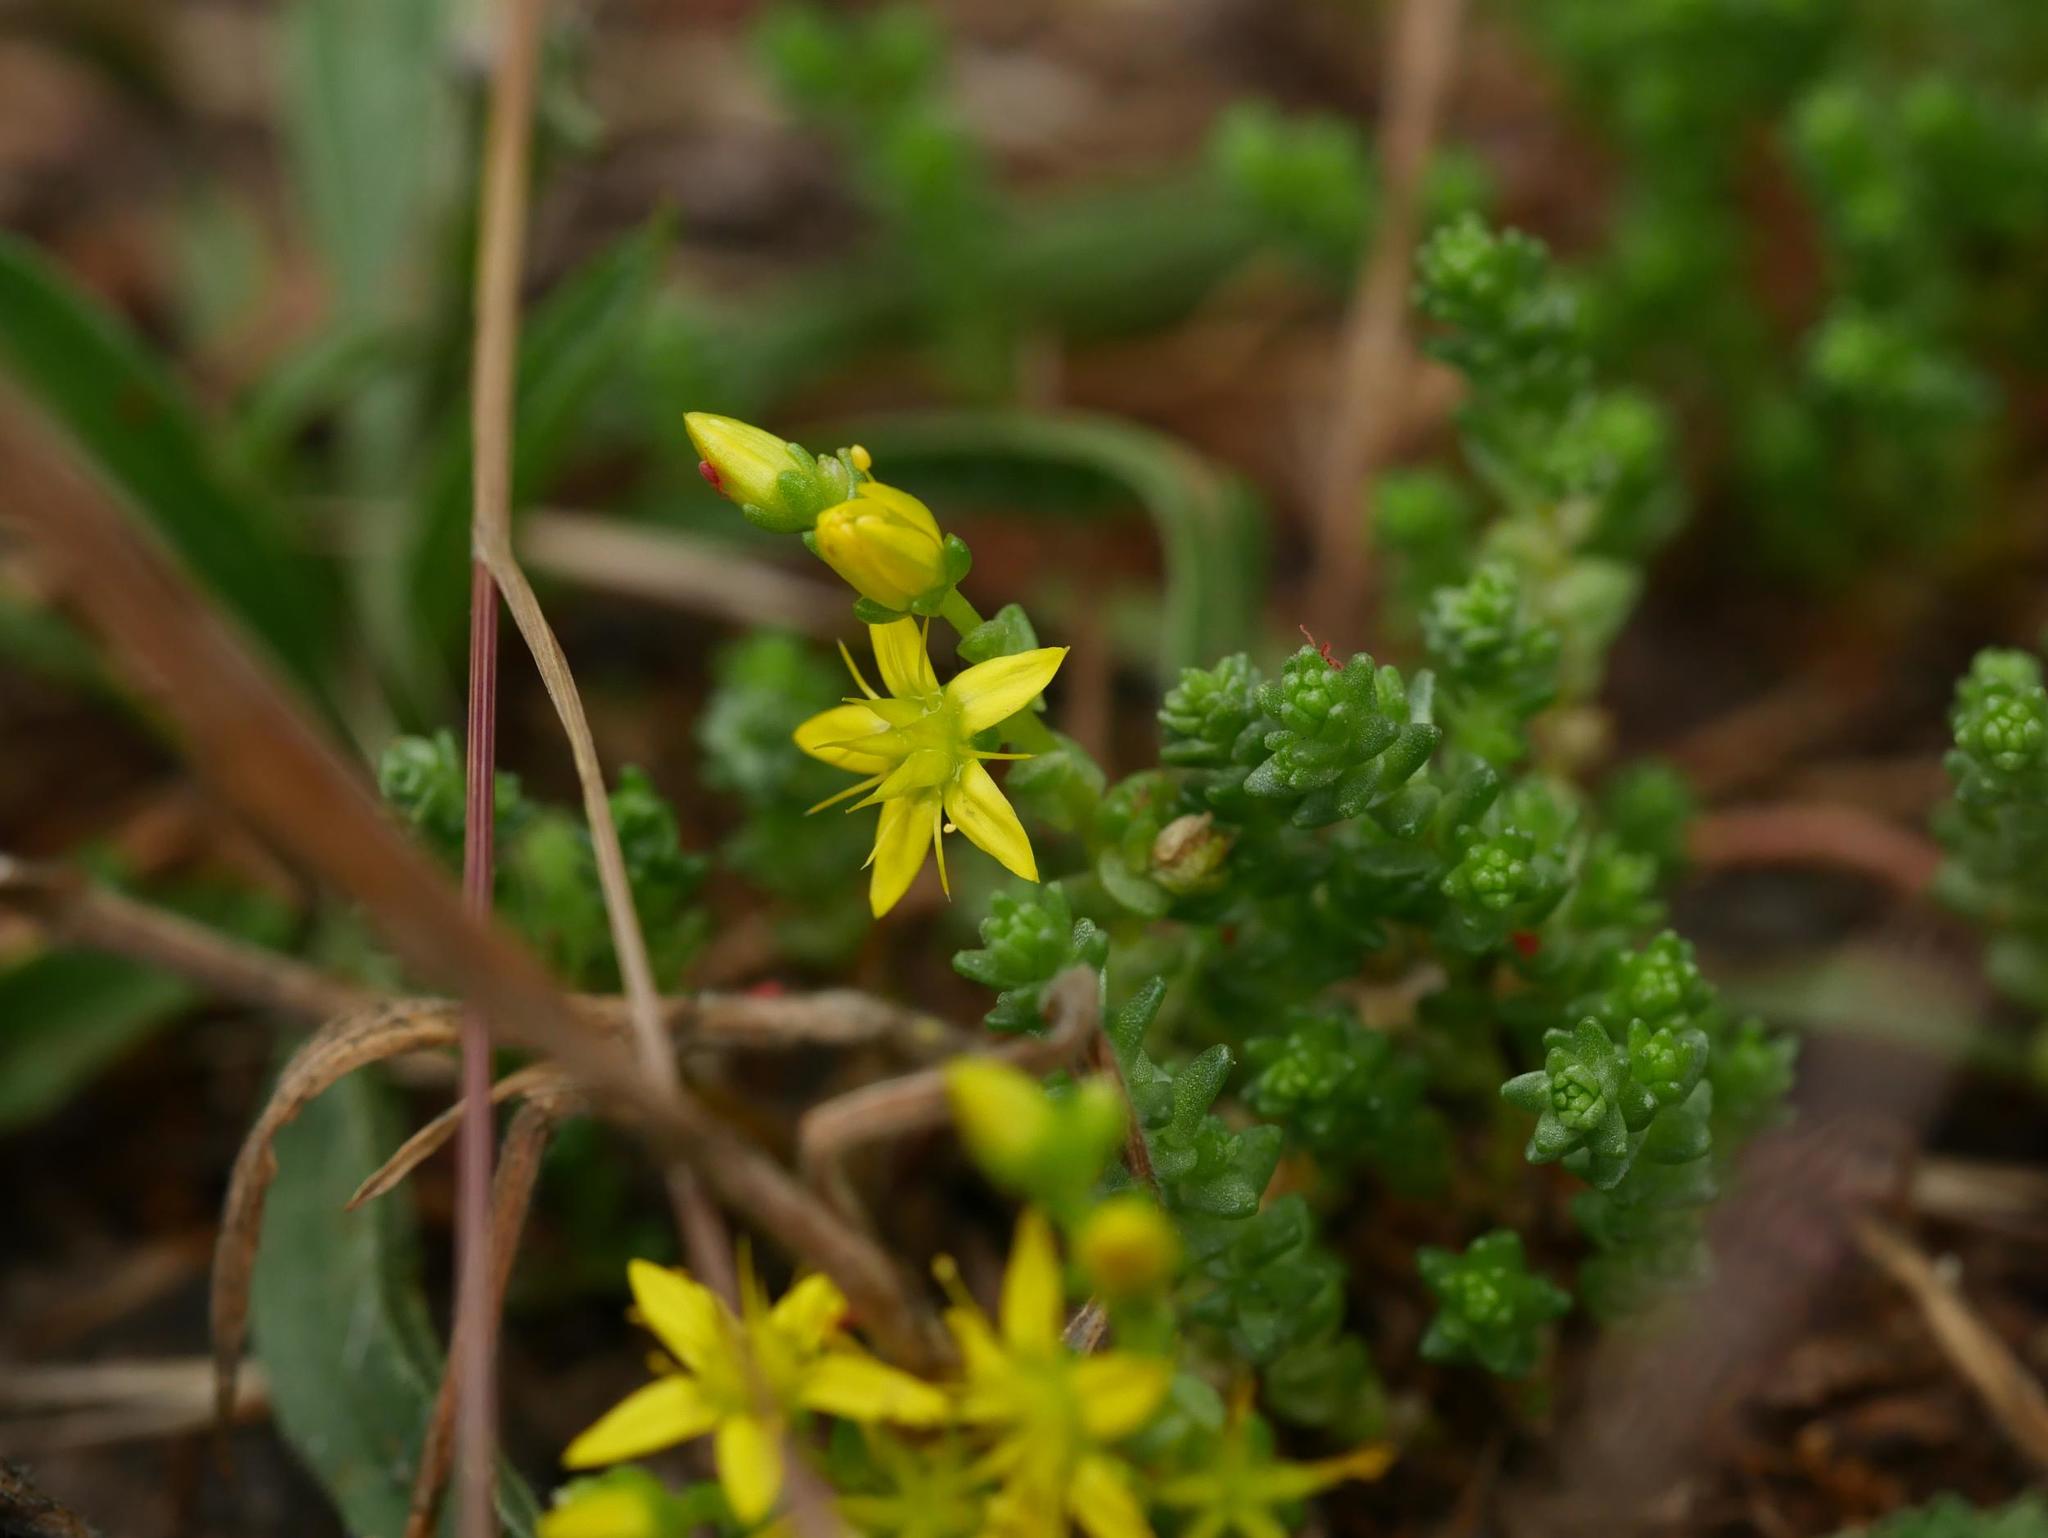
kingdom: Plantae
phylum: Tracheophyta
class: Magnoliopsida
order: Saxifragales
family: Crassulaceae
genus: Sedum
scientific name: Sedum acre
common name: Biting stonecrop
